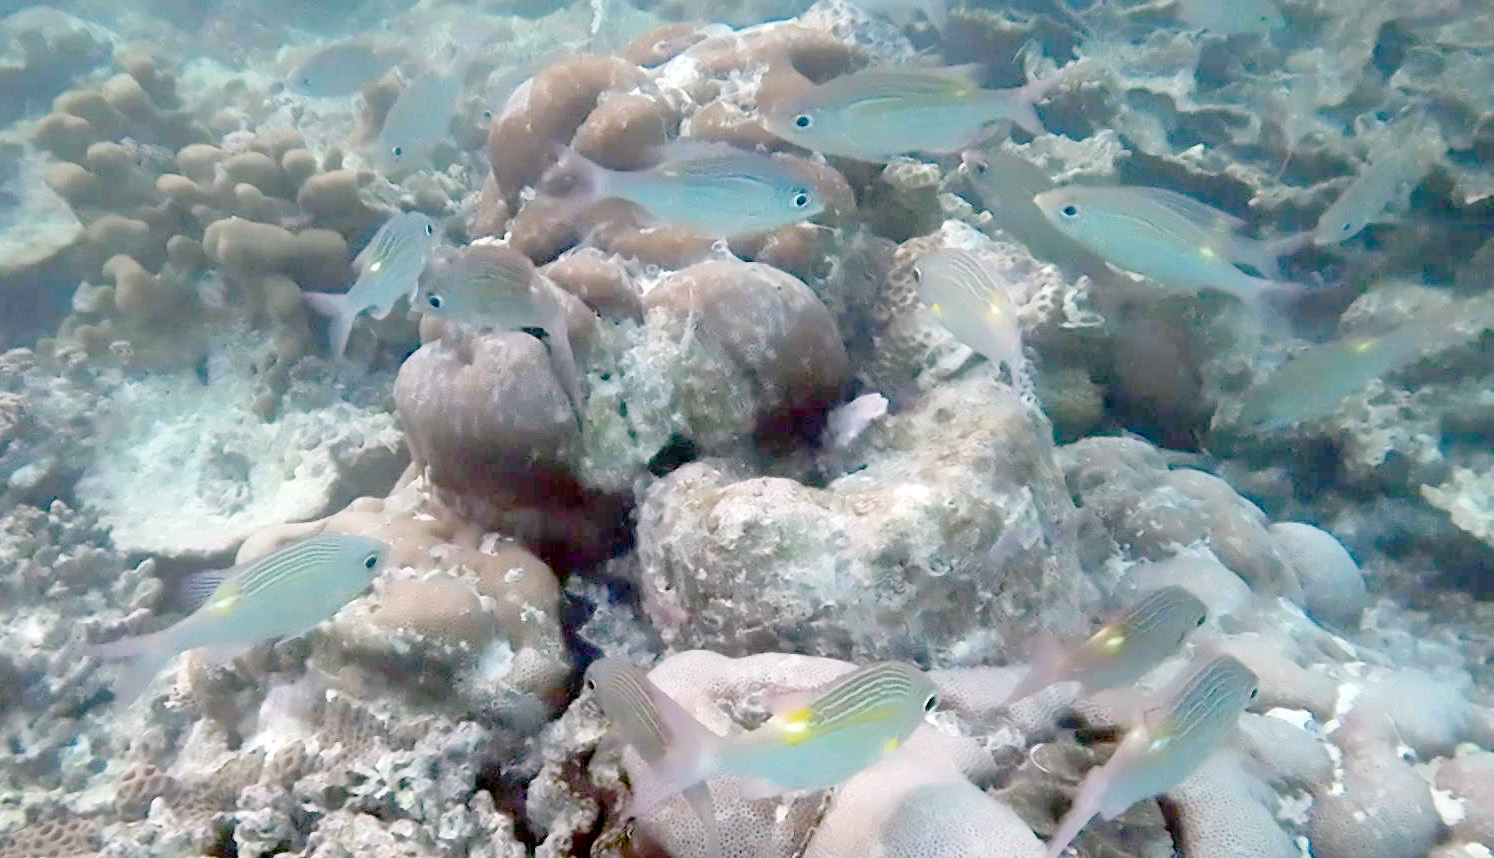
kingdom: Animalia
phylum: Chordata
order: Perciformes
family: Lethrinidae
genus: Gnathodentex
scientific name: Gnathodentex aureolineatus
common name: Gold-lined sea bream
